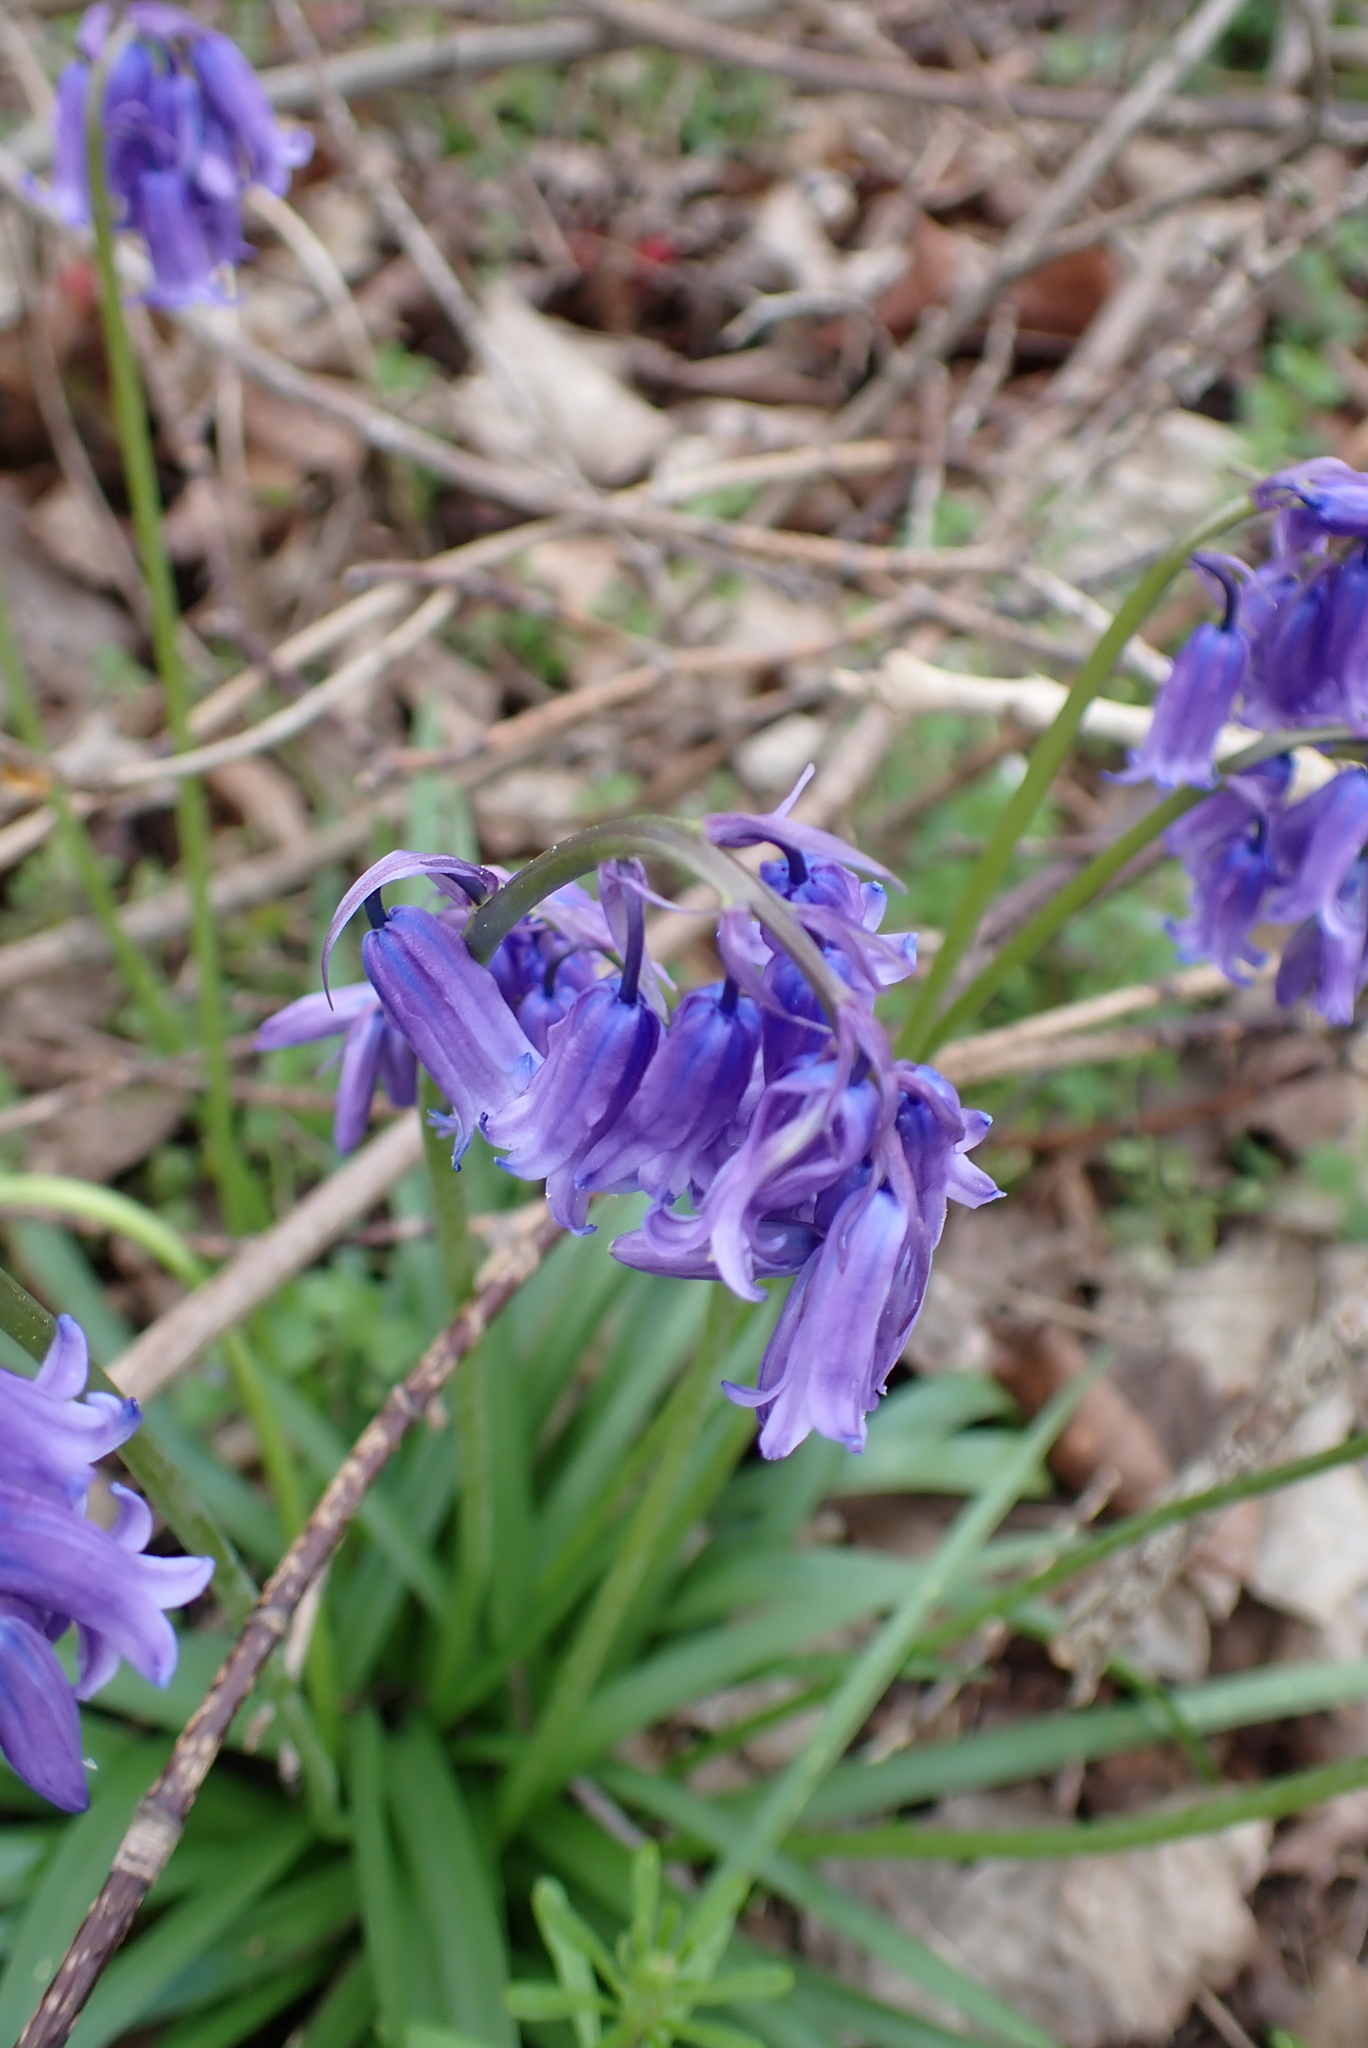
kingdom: Plantae
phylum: Tracheophyta
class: Liliopsida
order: Asparagales
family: Asparagaceae
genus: Hyacinthoides
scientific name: Hyacinthoides non-scripta
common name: Bluebell
